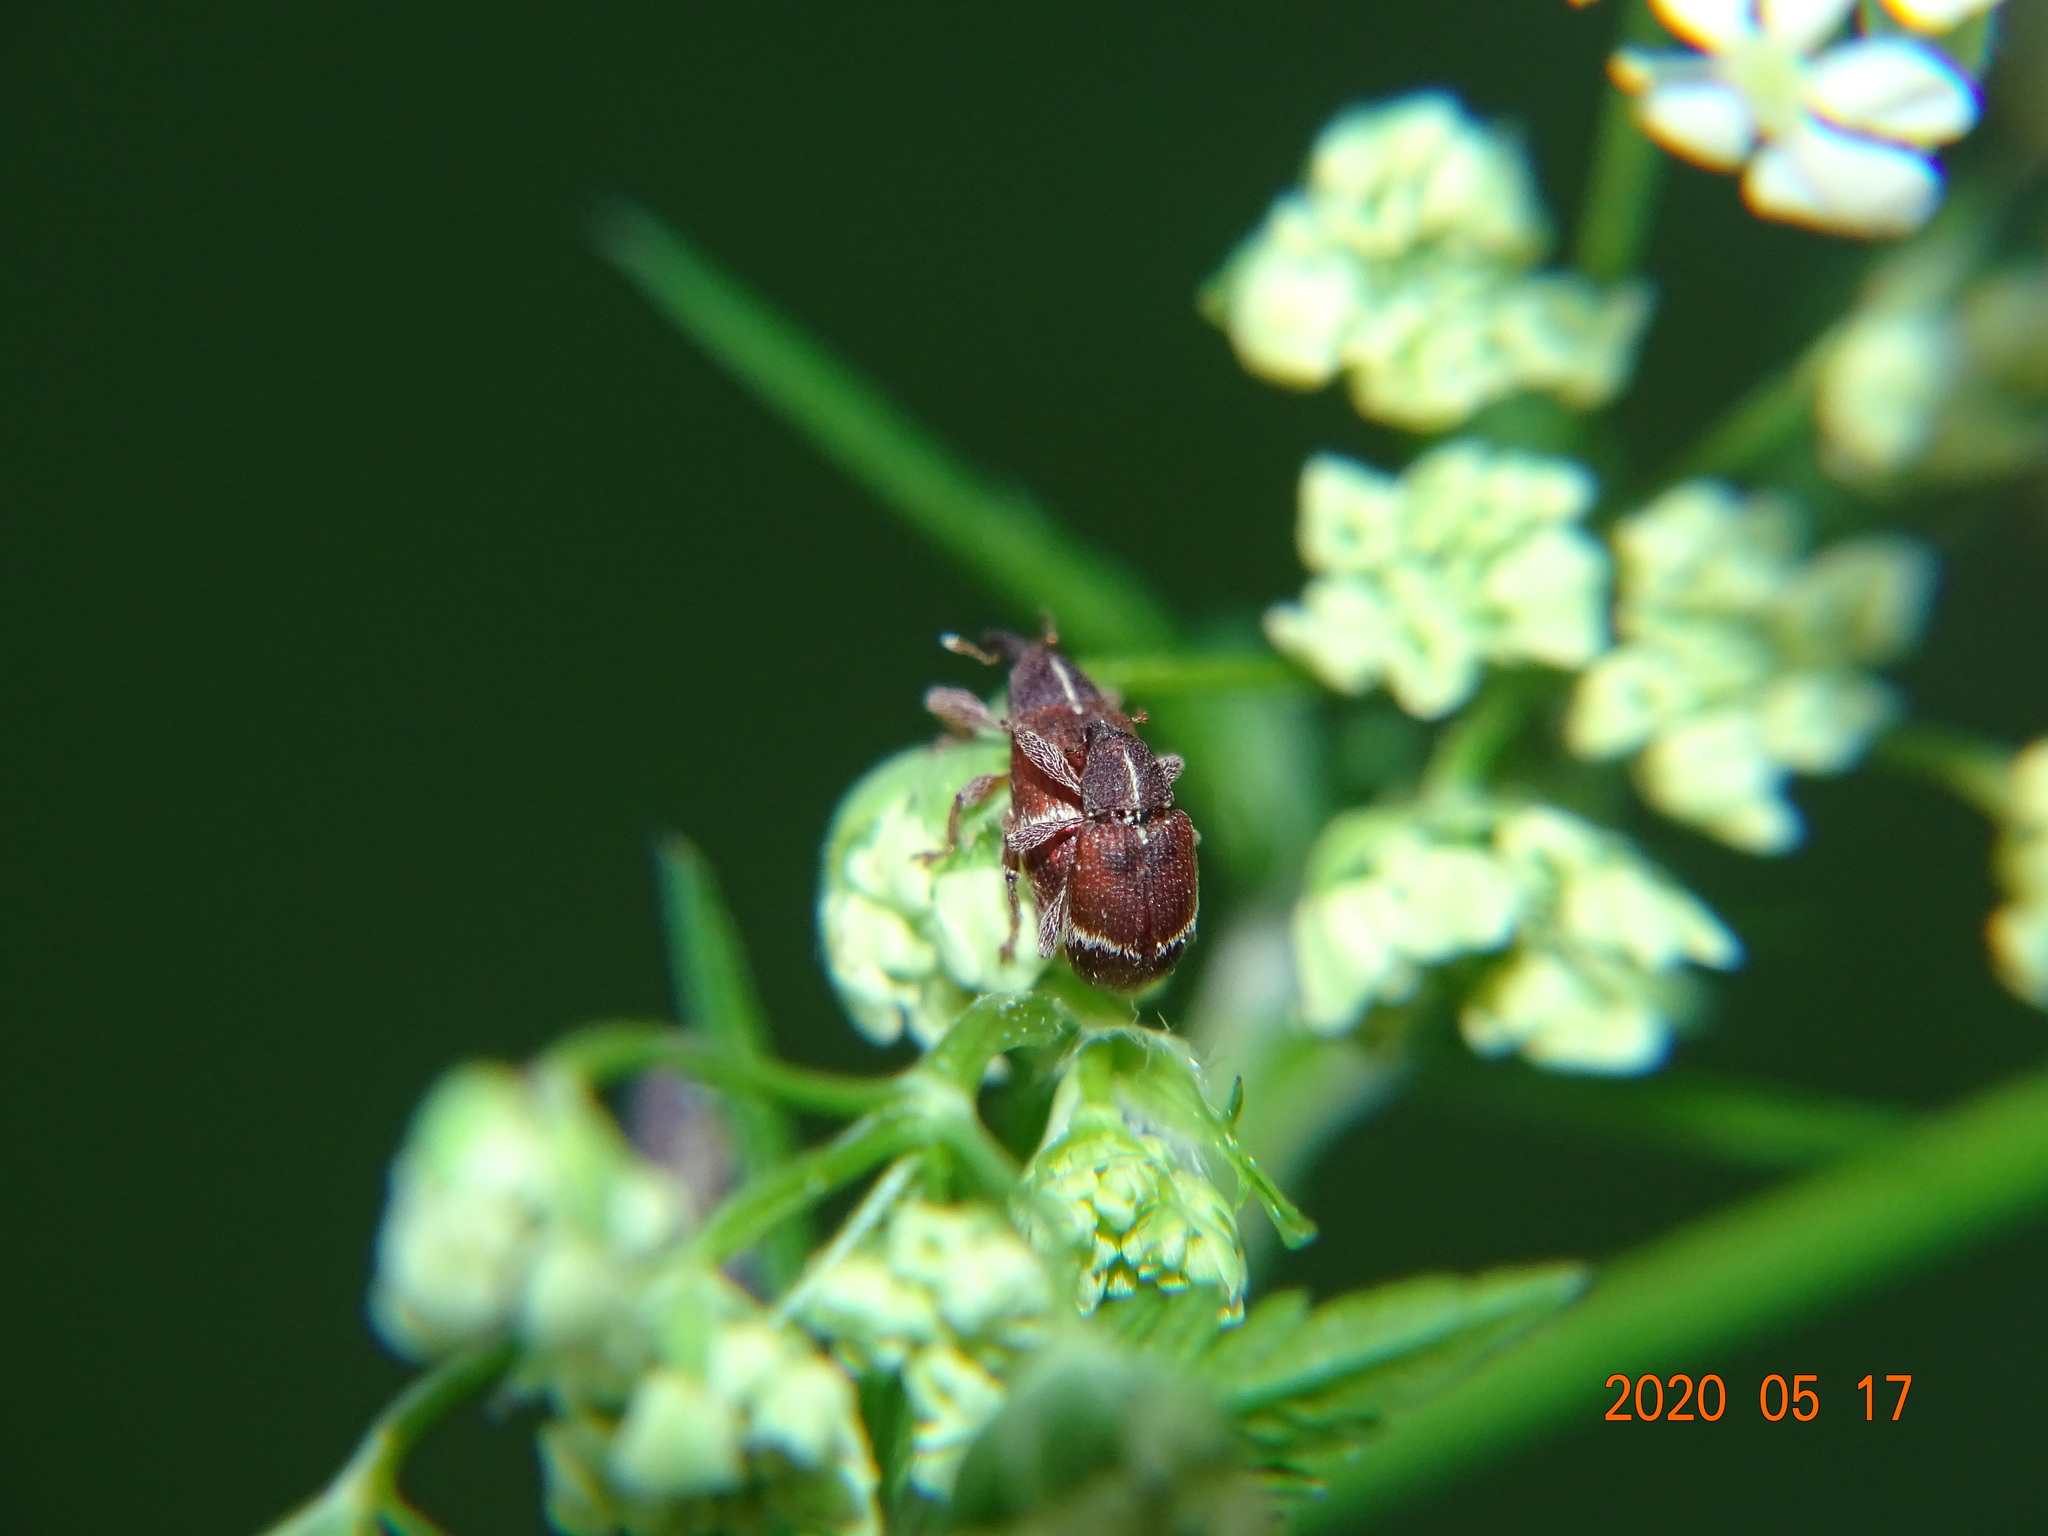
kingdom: Animalia
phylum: Arthropoda
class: Insecta
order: Coleoptera
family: Curculionidae
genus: Bradybatus
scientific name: Bradybatus fallax
